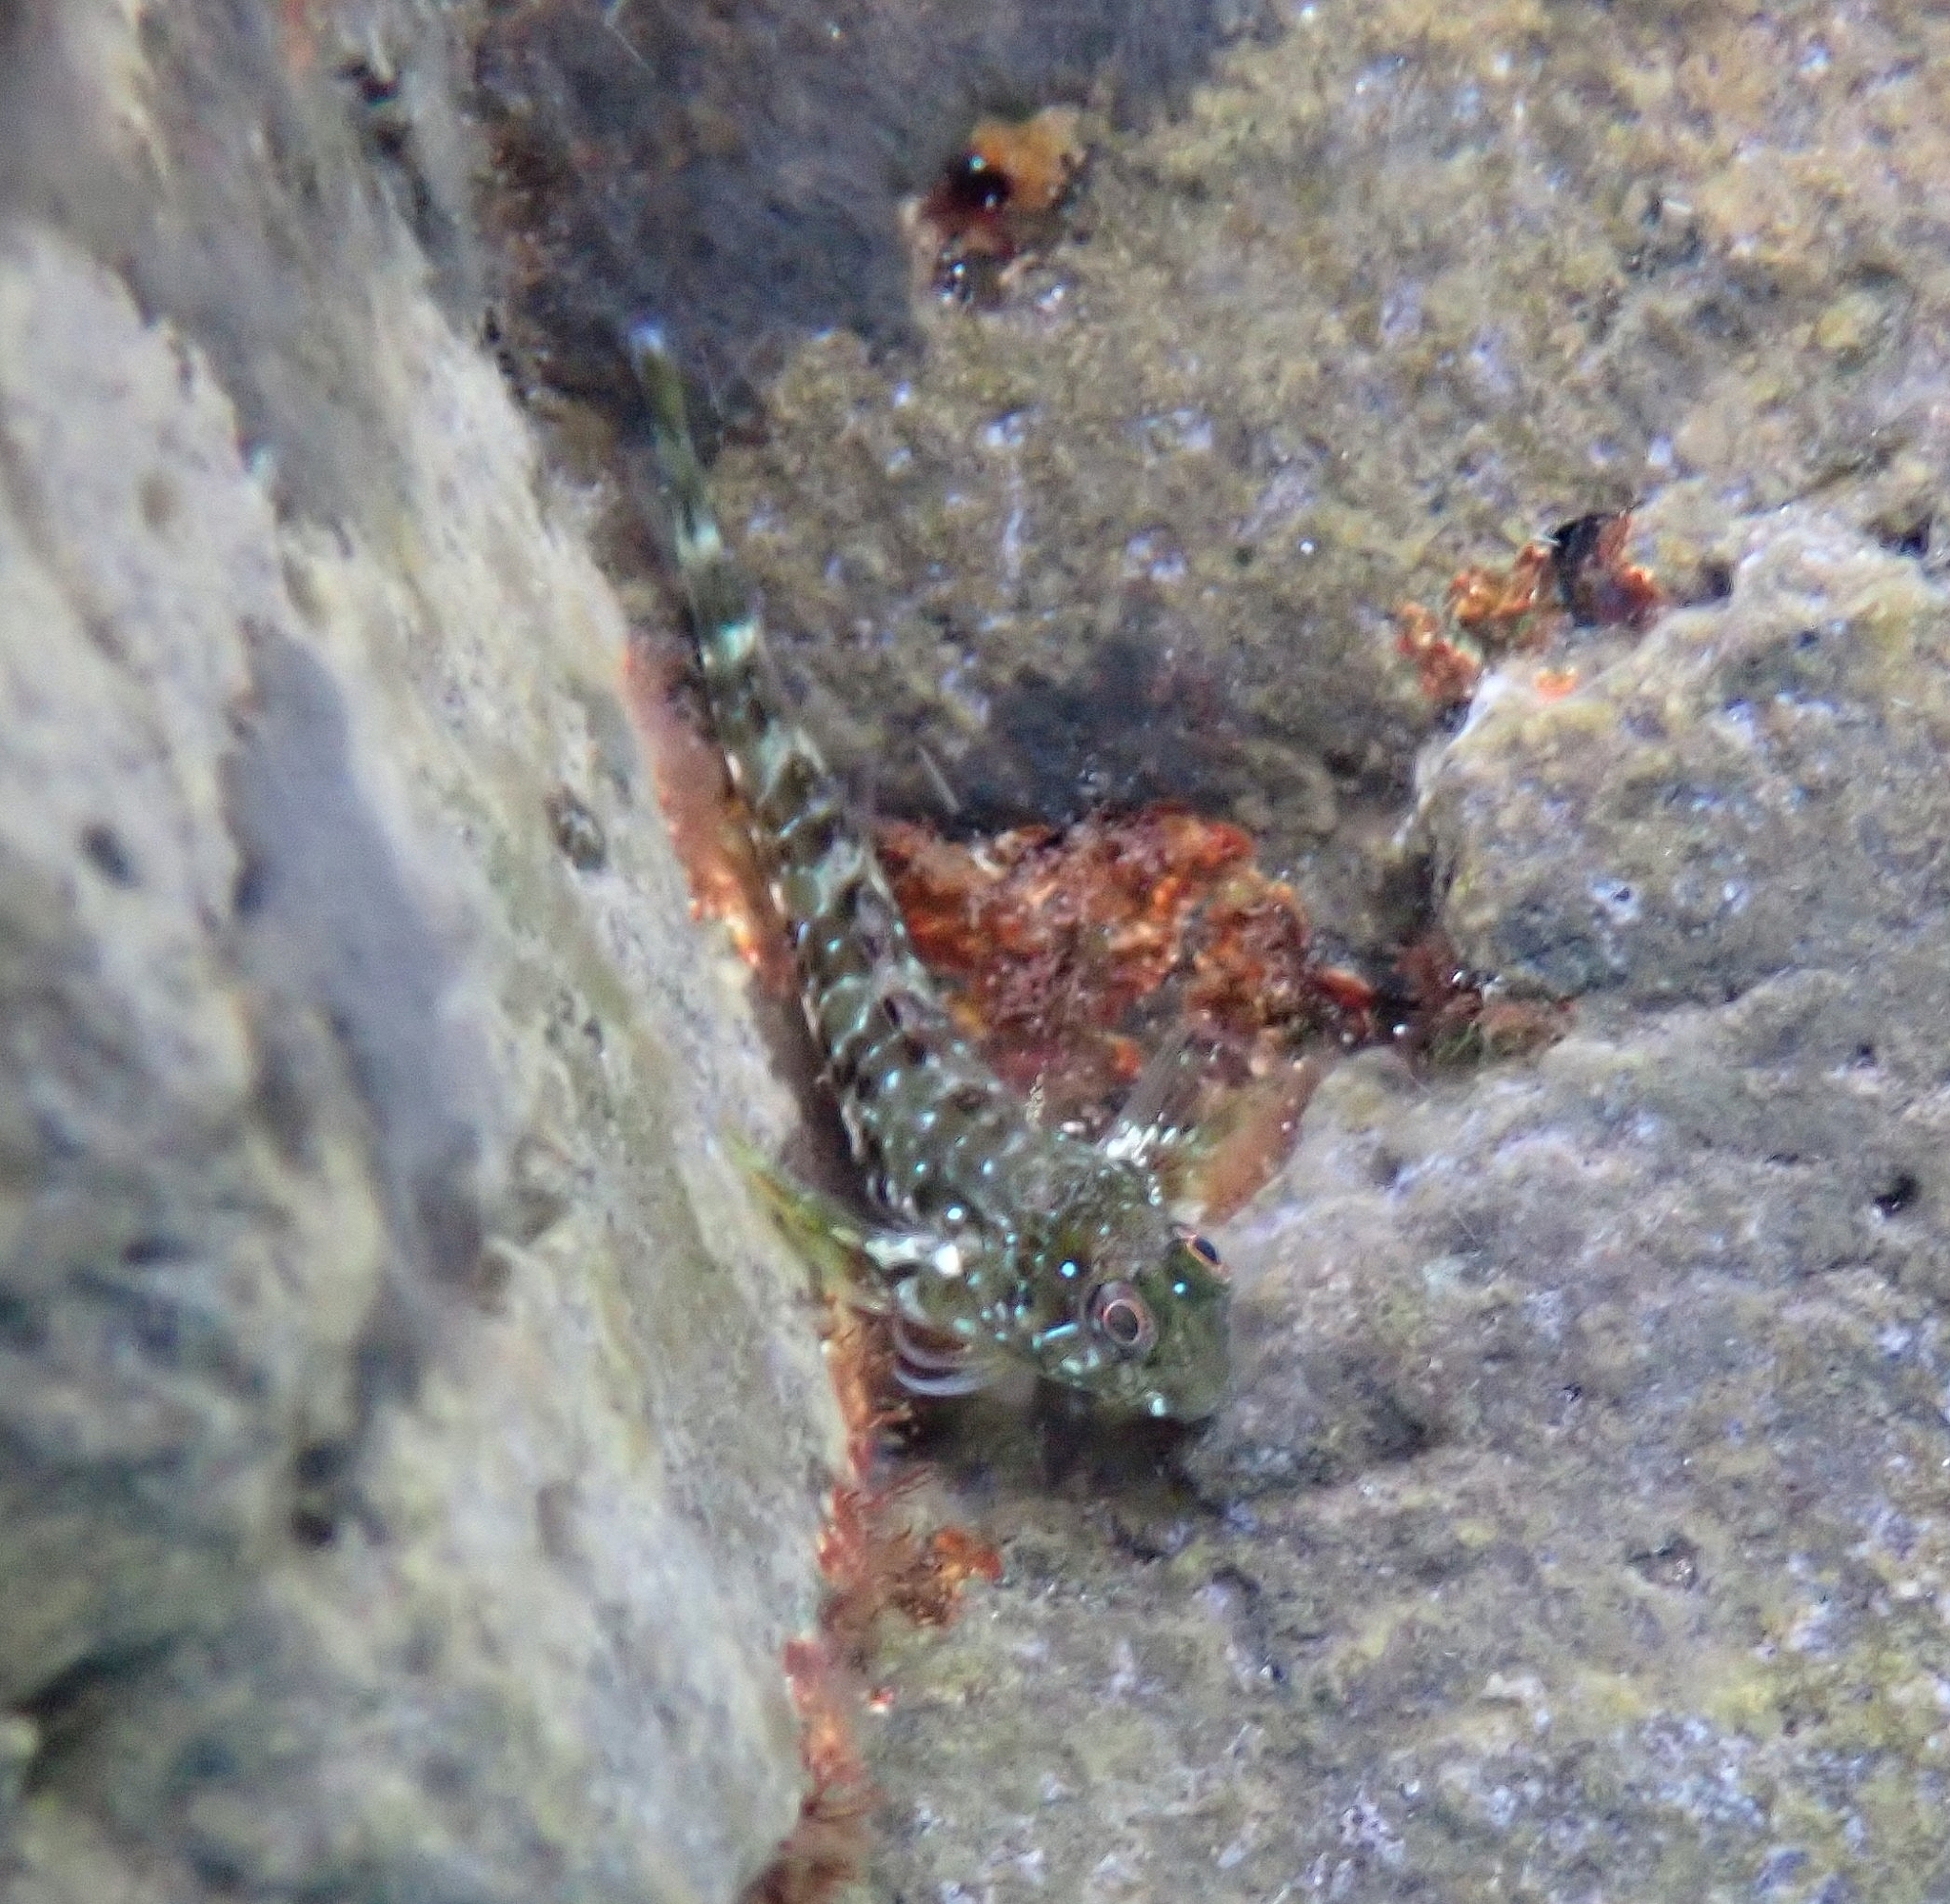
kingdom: Animalia
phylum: Chordata
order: Perciformes
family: Blenniidae
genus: Scartella
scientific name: Scartella cristata
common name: Molly miller
